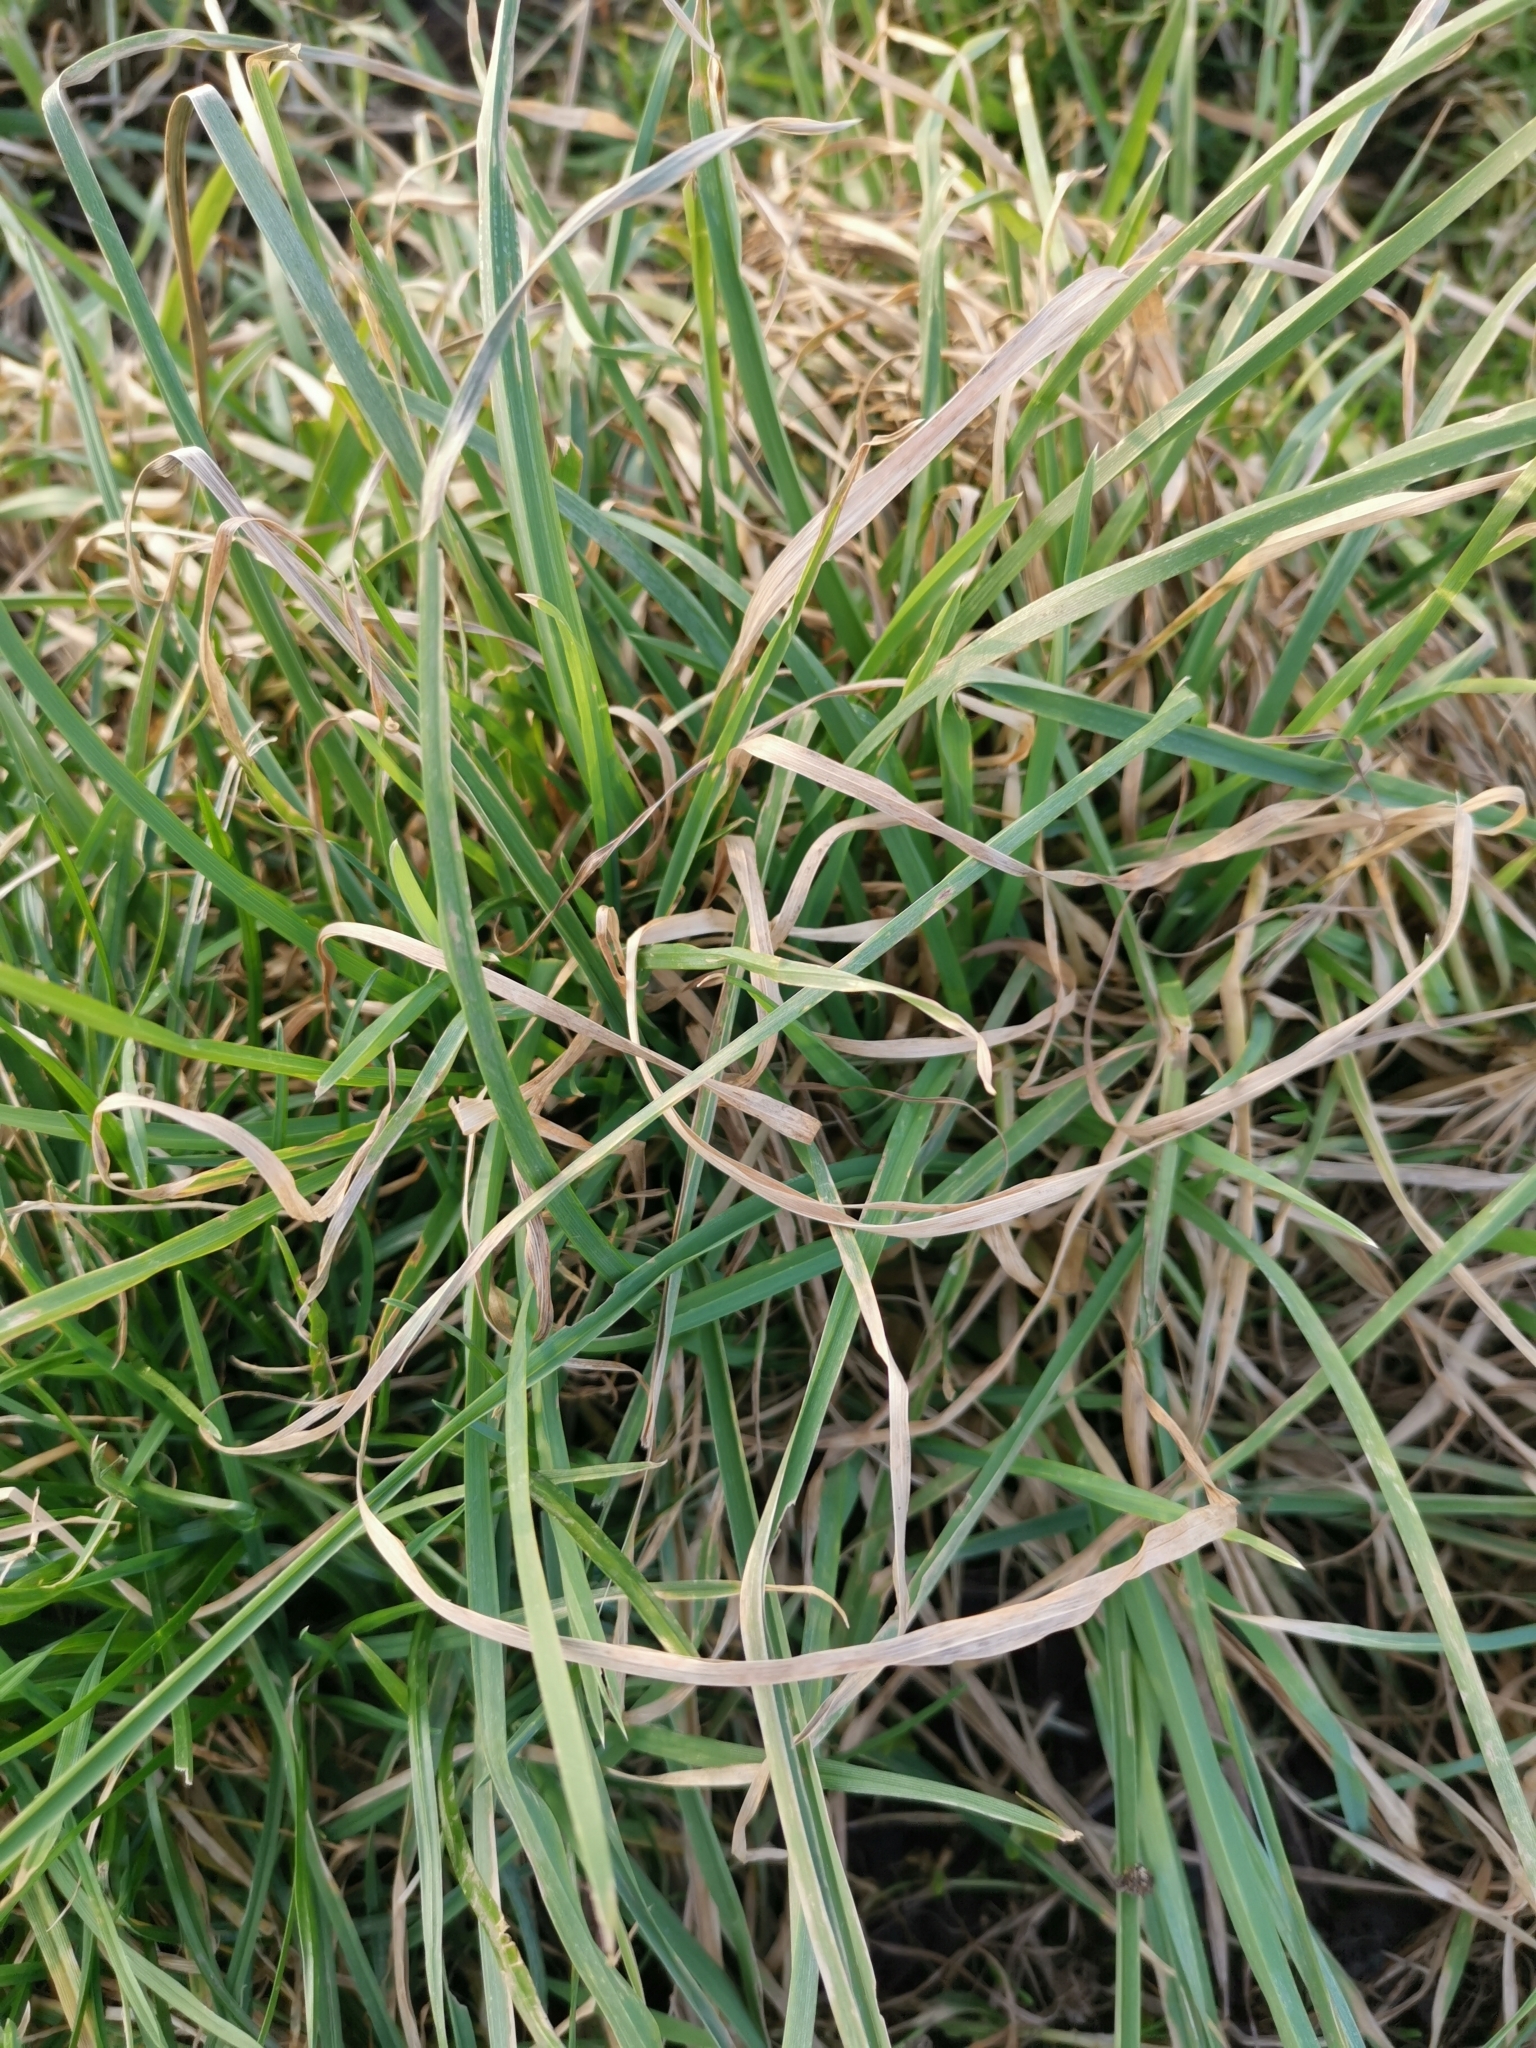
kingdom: Plantae
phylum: Tracheophyta
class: Liliopsida
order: Poales
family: Poaceae
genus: Dactylis
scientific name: Dactylis glomerata
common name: Orchardgrass
